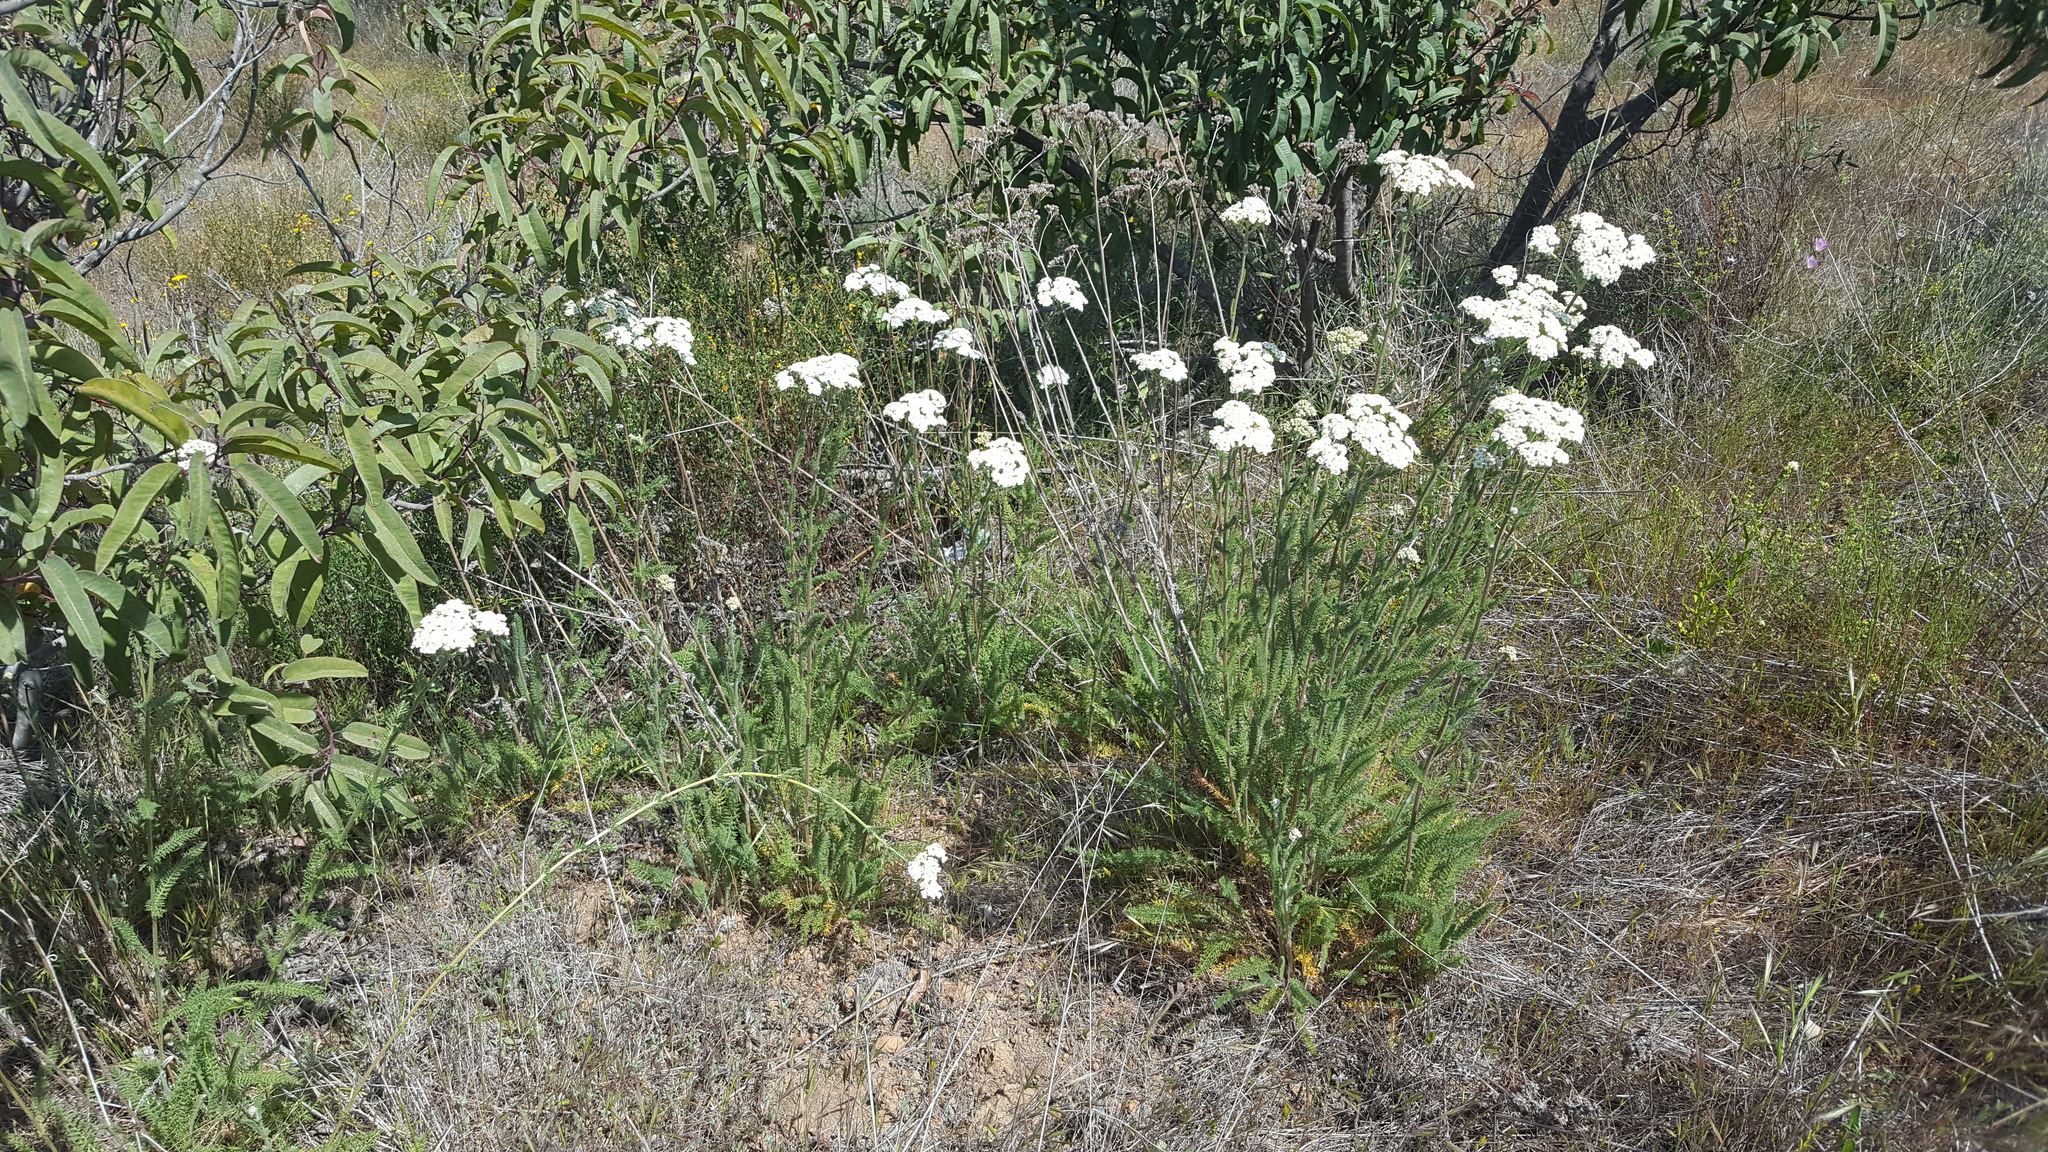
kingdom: Plantae
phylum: Tracheophyta
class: Magnoliopsida
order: Asterales
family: Asteraceae
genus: Achillea
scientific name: Achillea millefolium
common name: Yarrow
